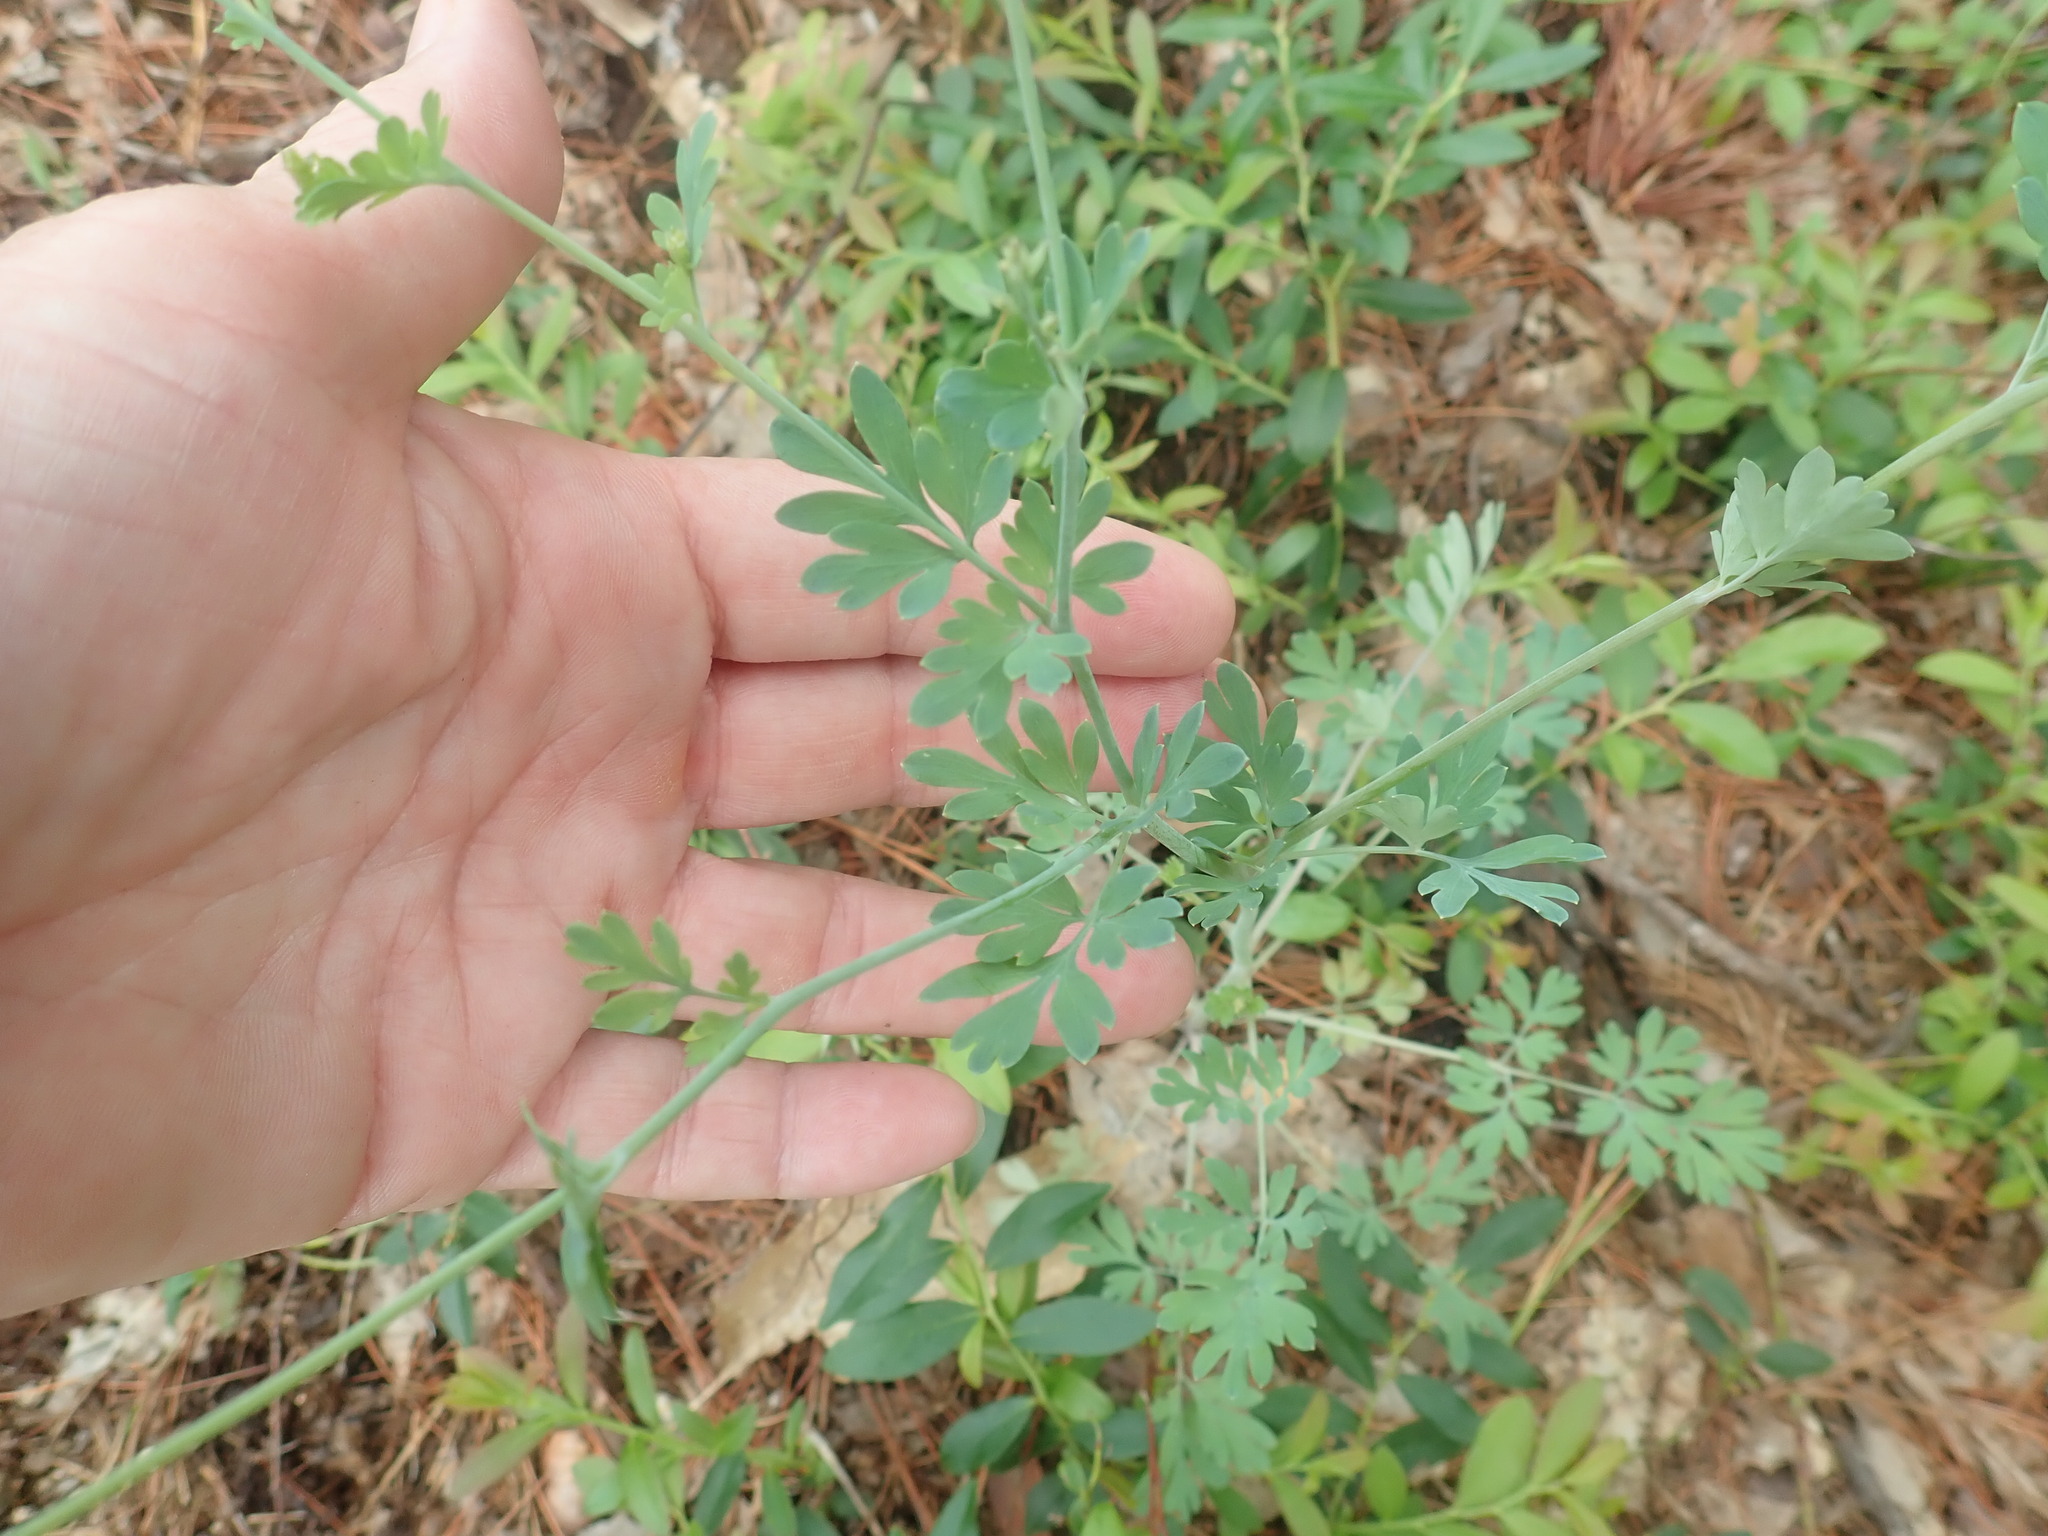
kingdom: Plantae
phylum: Tracheophyta
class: Magnoliopsida
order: Ranunculales
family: Papaveraceae
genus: Capnoides
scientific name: Capnoides sempervirens
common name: Rock harlequin
